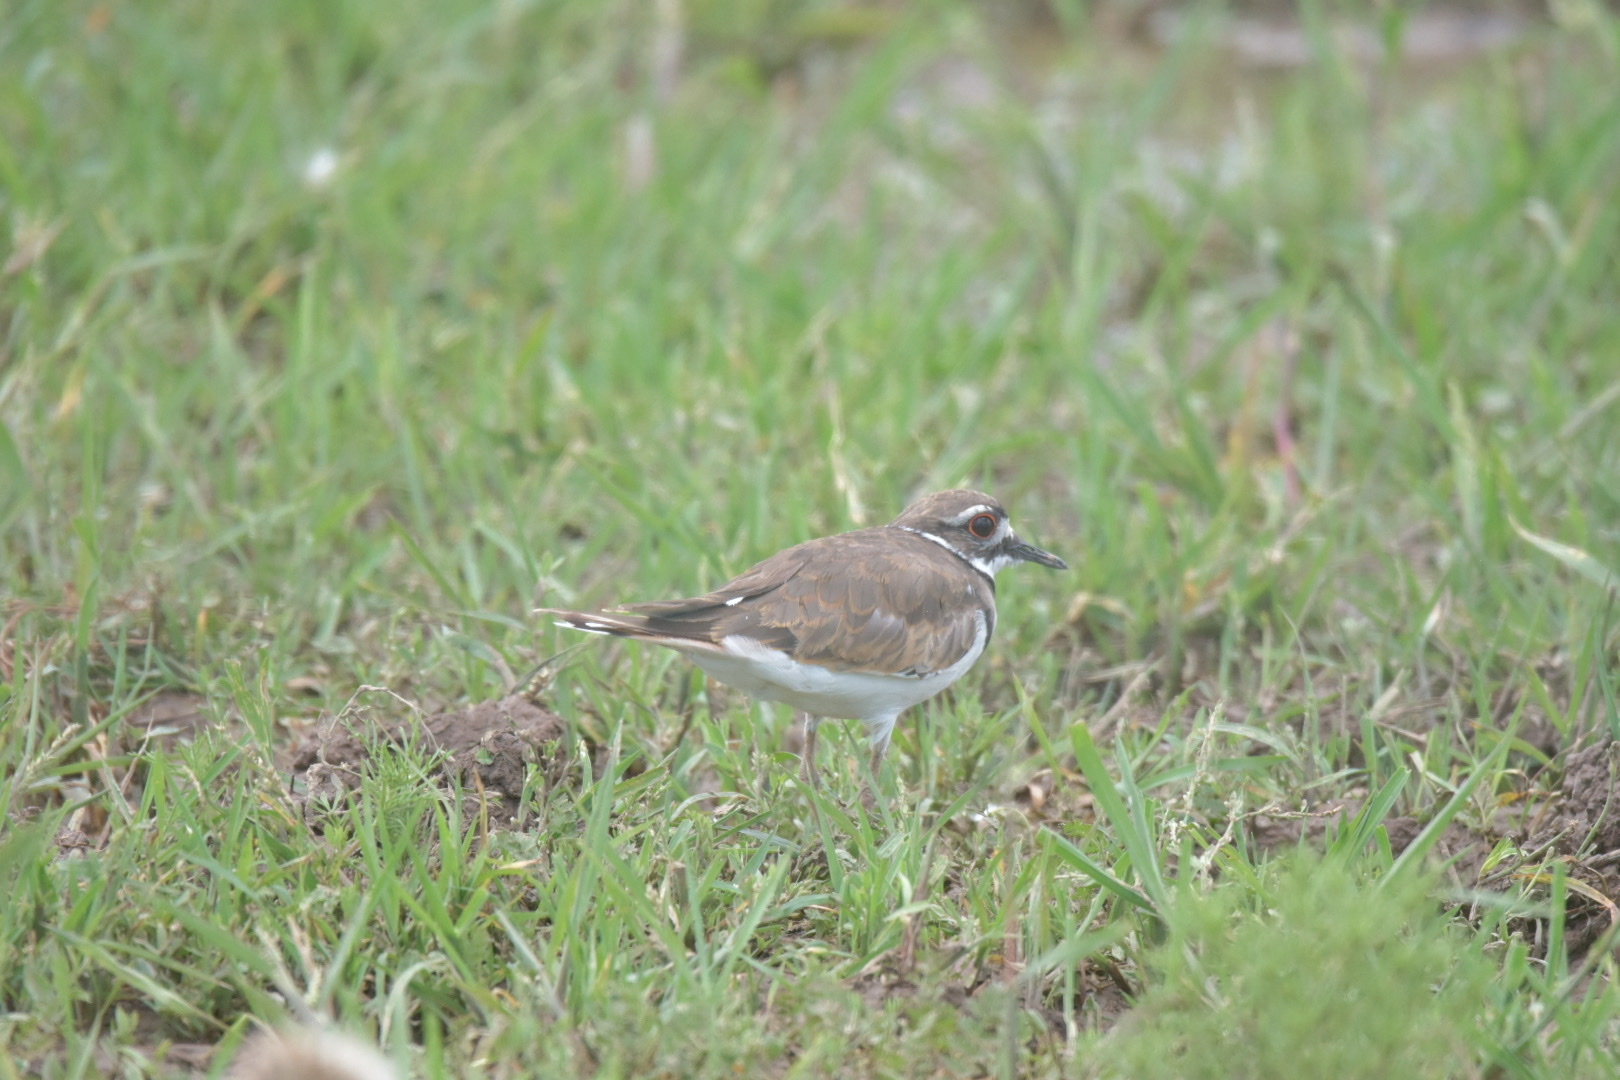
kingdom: Animalia
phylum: Chordata
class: Aves
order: Charadriiformes
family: Charadriidae
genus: Charadrius
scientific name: Charadrius vociferus
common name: Killdeer
